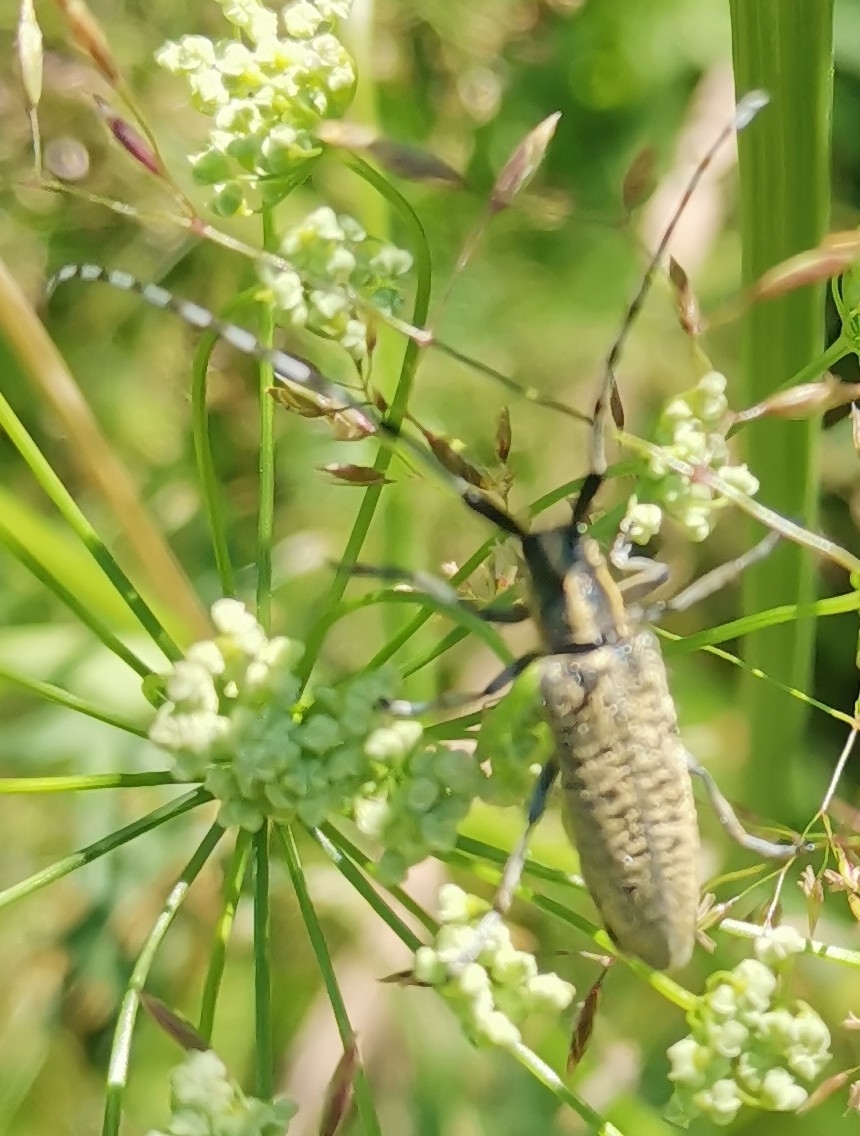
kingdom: Animalia
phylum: Arthropoda
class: Insecta
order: Coleoptera
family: Cerambycidae
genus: Agapanthia
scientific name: Agapanthia villosoviridescens
